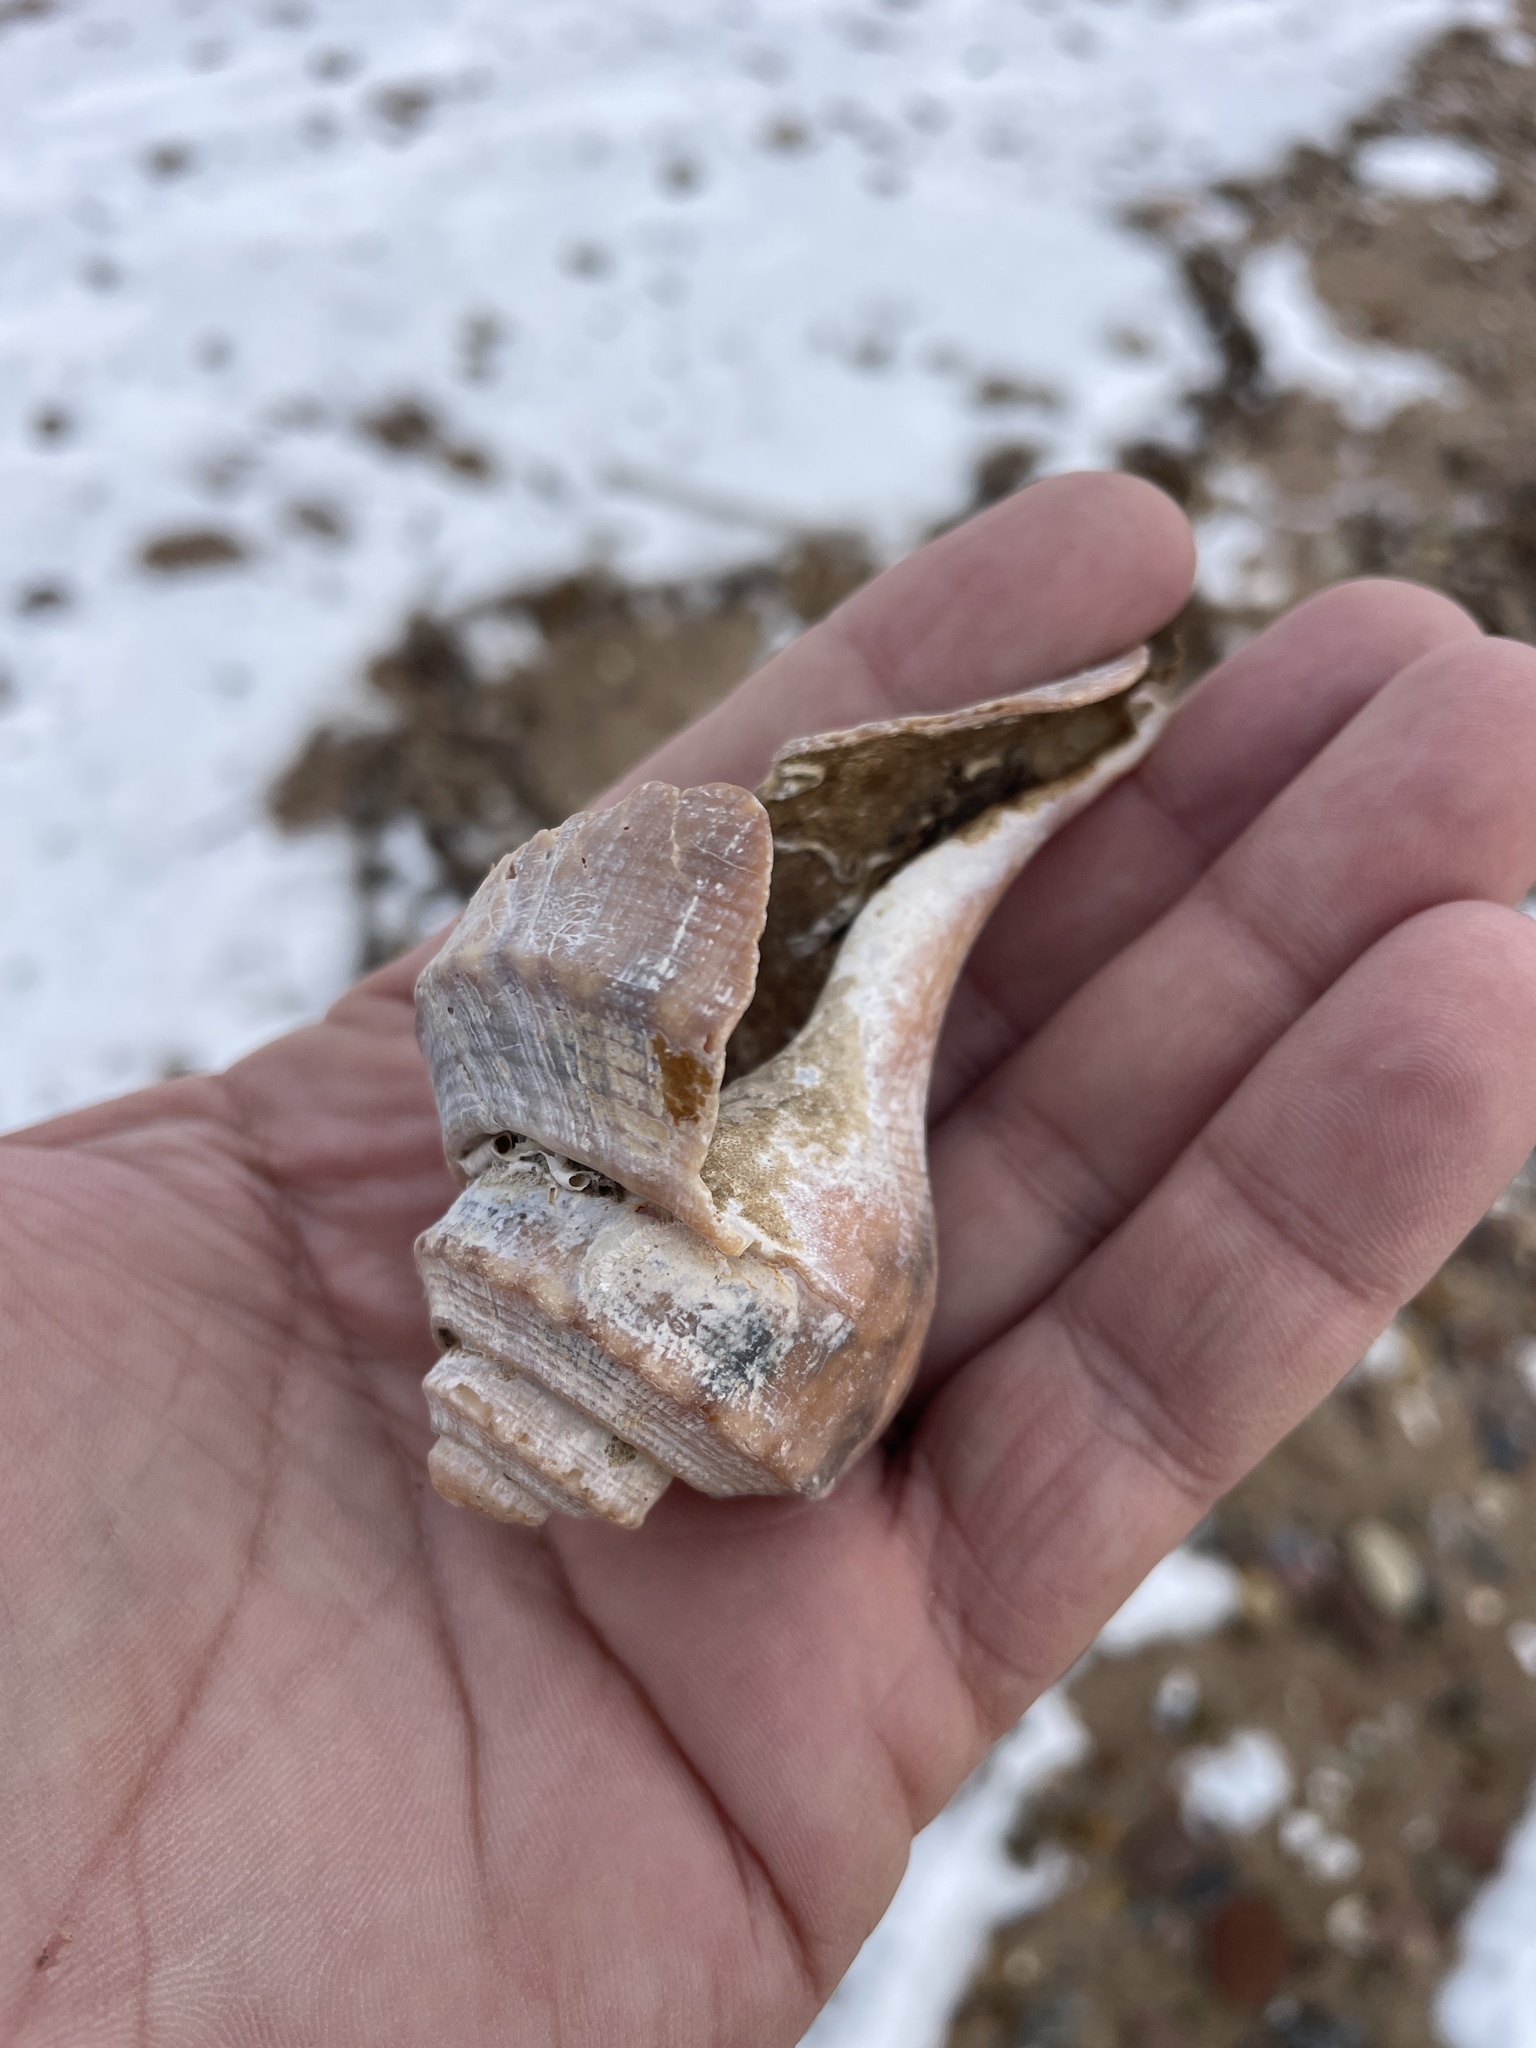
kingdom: Animalia
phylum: Mollusca
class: Gastropoda
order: Neogastropoda
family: Busyconidae
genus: Busycotypus
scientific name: Busycotypus canaliculatus
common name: Channeled whelk
